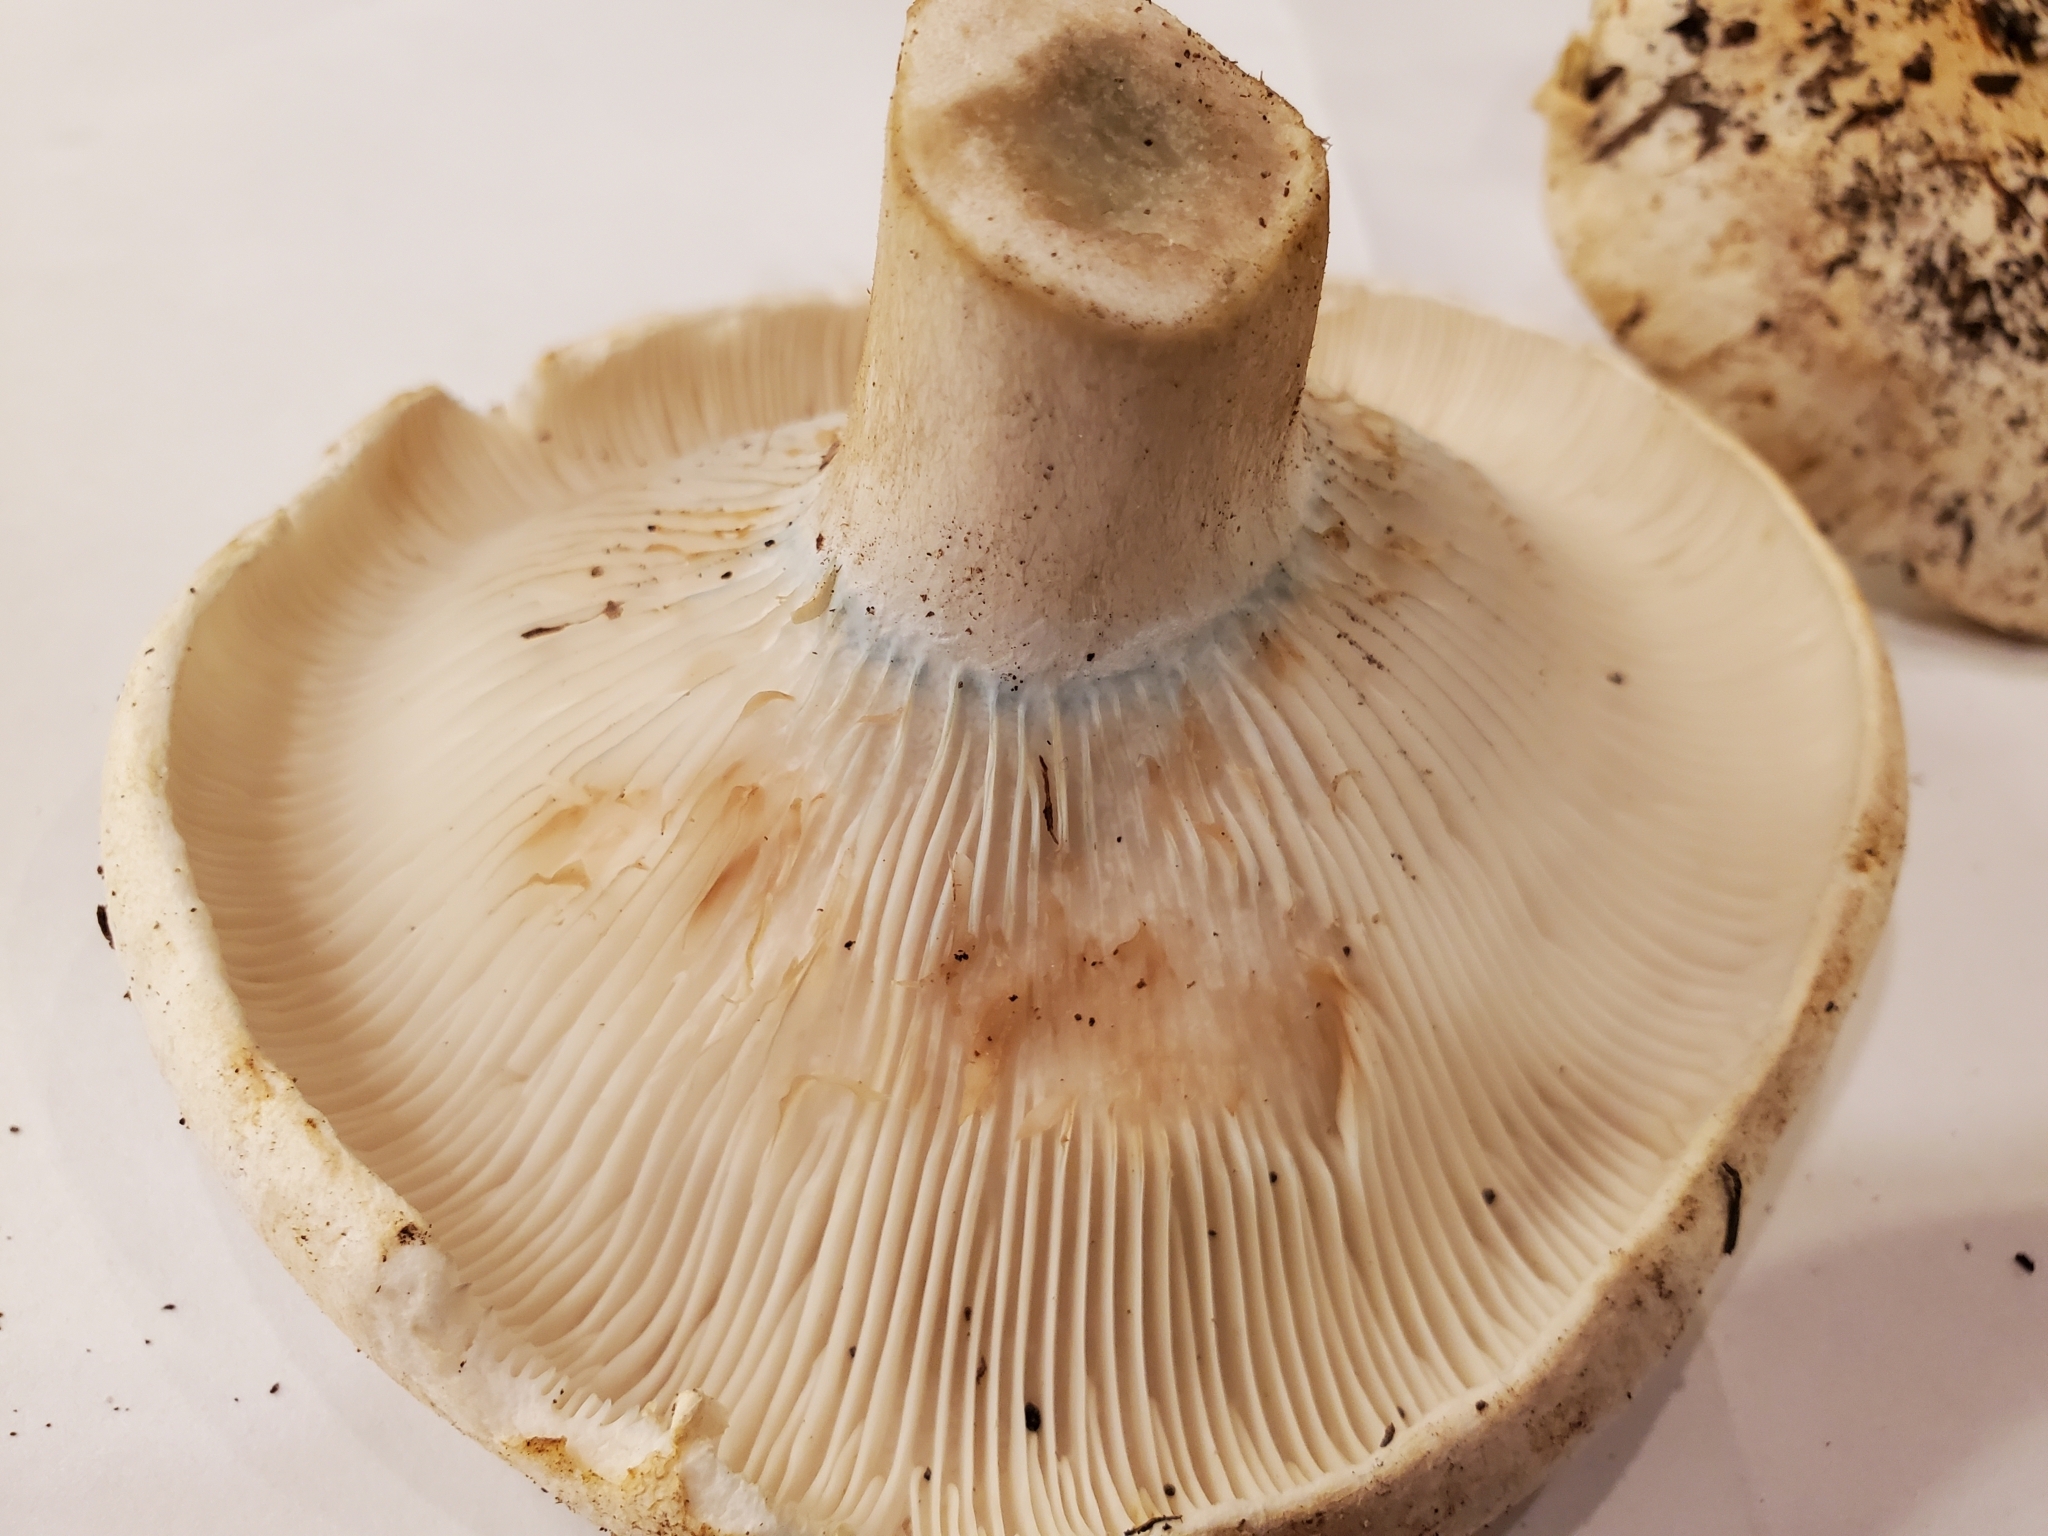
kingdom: Fungi
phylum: Basidiomycota
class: Agaricomycetes
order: Russulales
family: Russulaceae
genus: Russula
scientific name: Russula brevipes
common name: Short-stemmed russula
